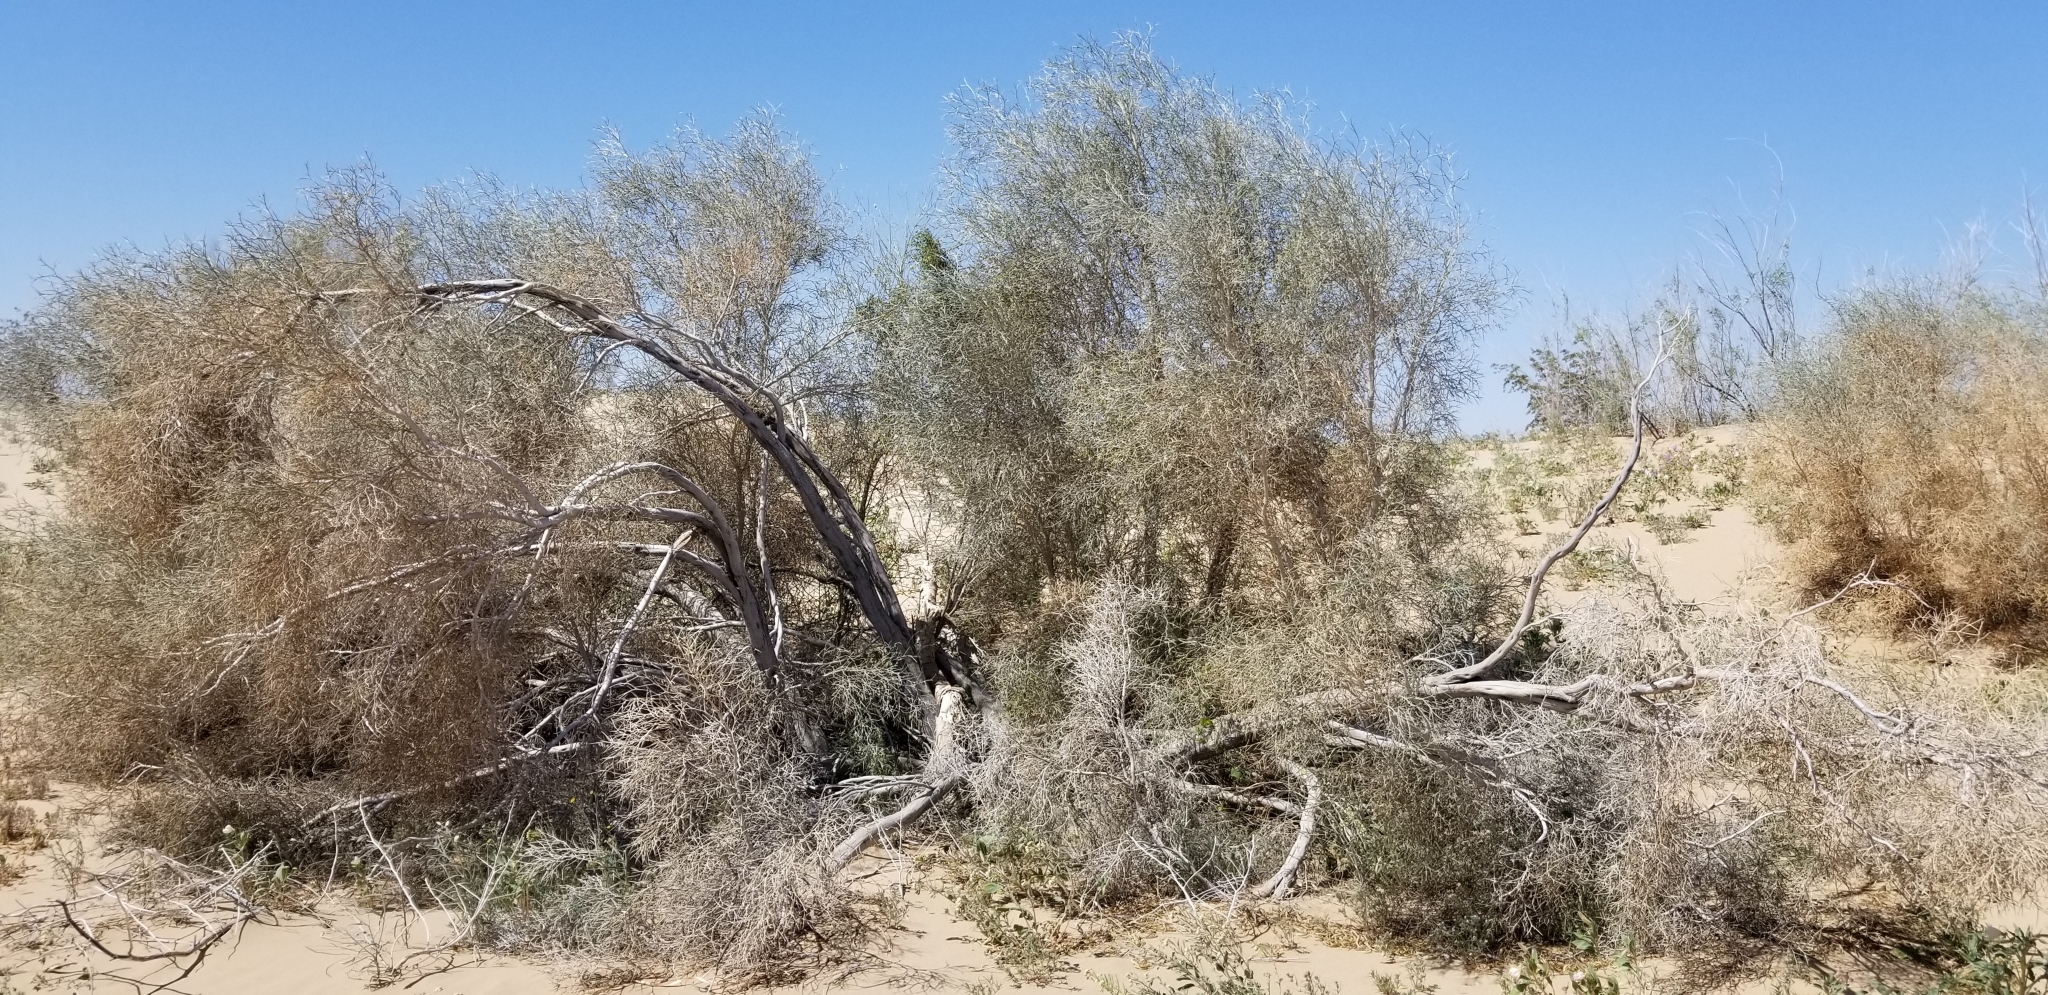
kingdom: Plantae
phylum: Tracheophyta
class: Magnoliopsida
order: Fabales
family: Fabaceae
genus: Psorothamnus
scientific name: Psorothamnus spinosus
